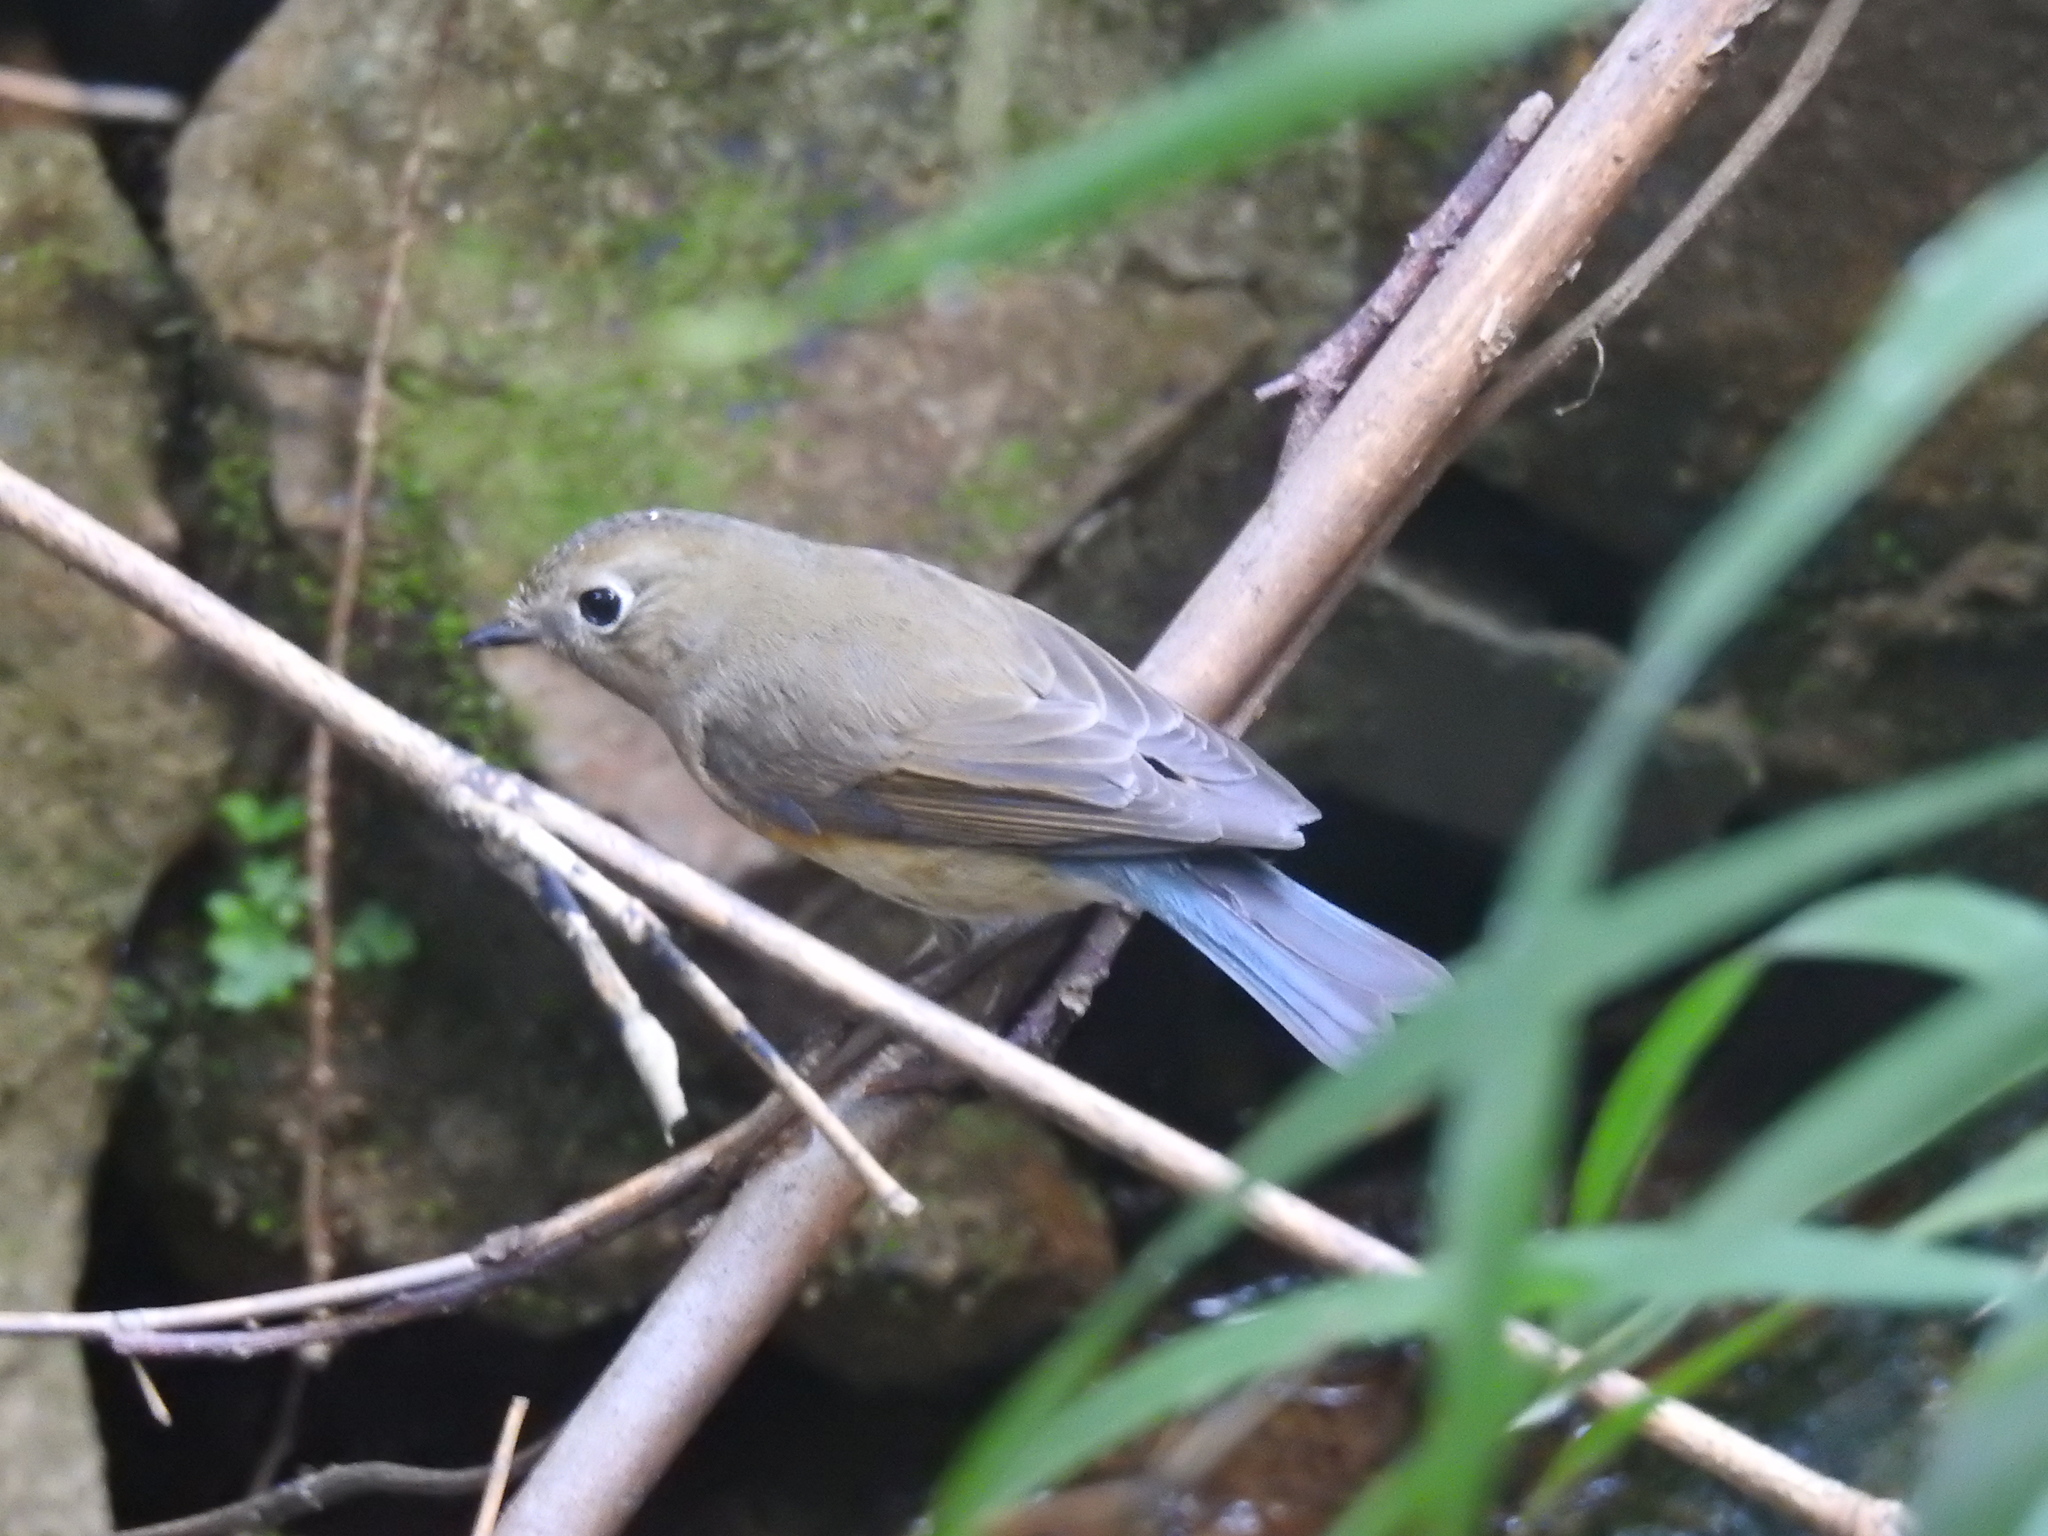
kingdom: Animalia
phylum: Chordata
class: Aves
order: Passeriformes
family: Muscicapidae
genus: Tarsiger
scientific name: Tarsiger cyanurus
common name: Red-flanked bluetail
